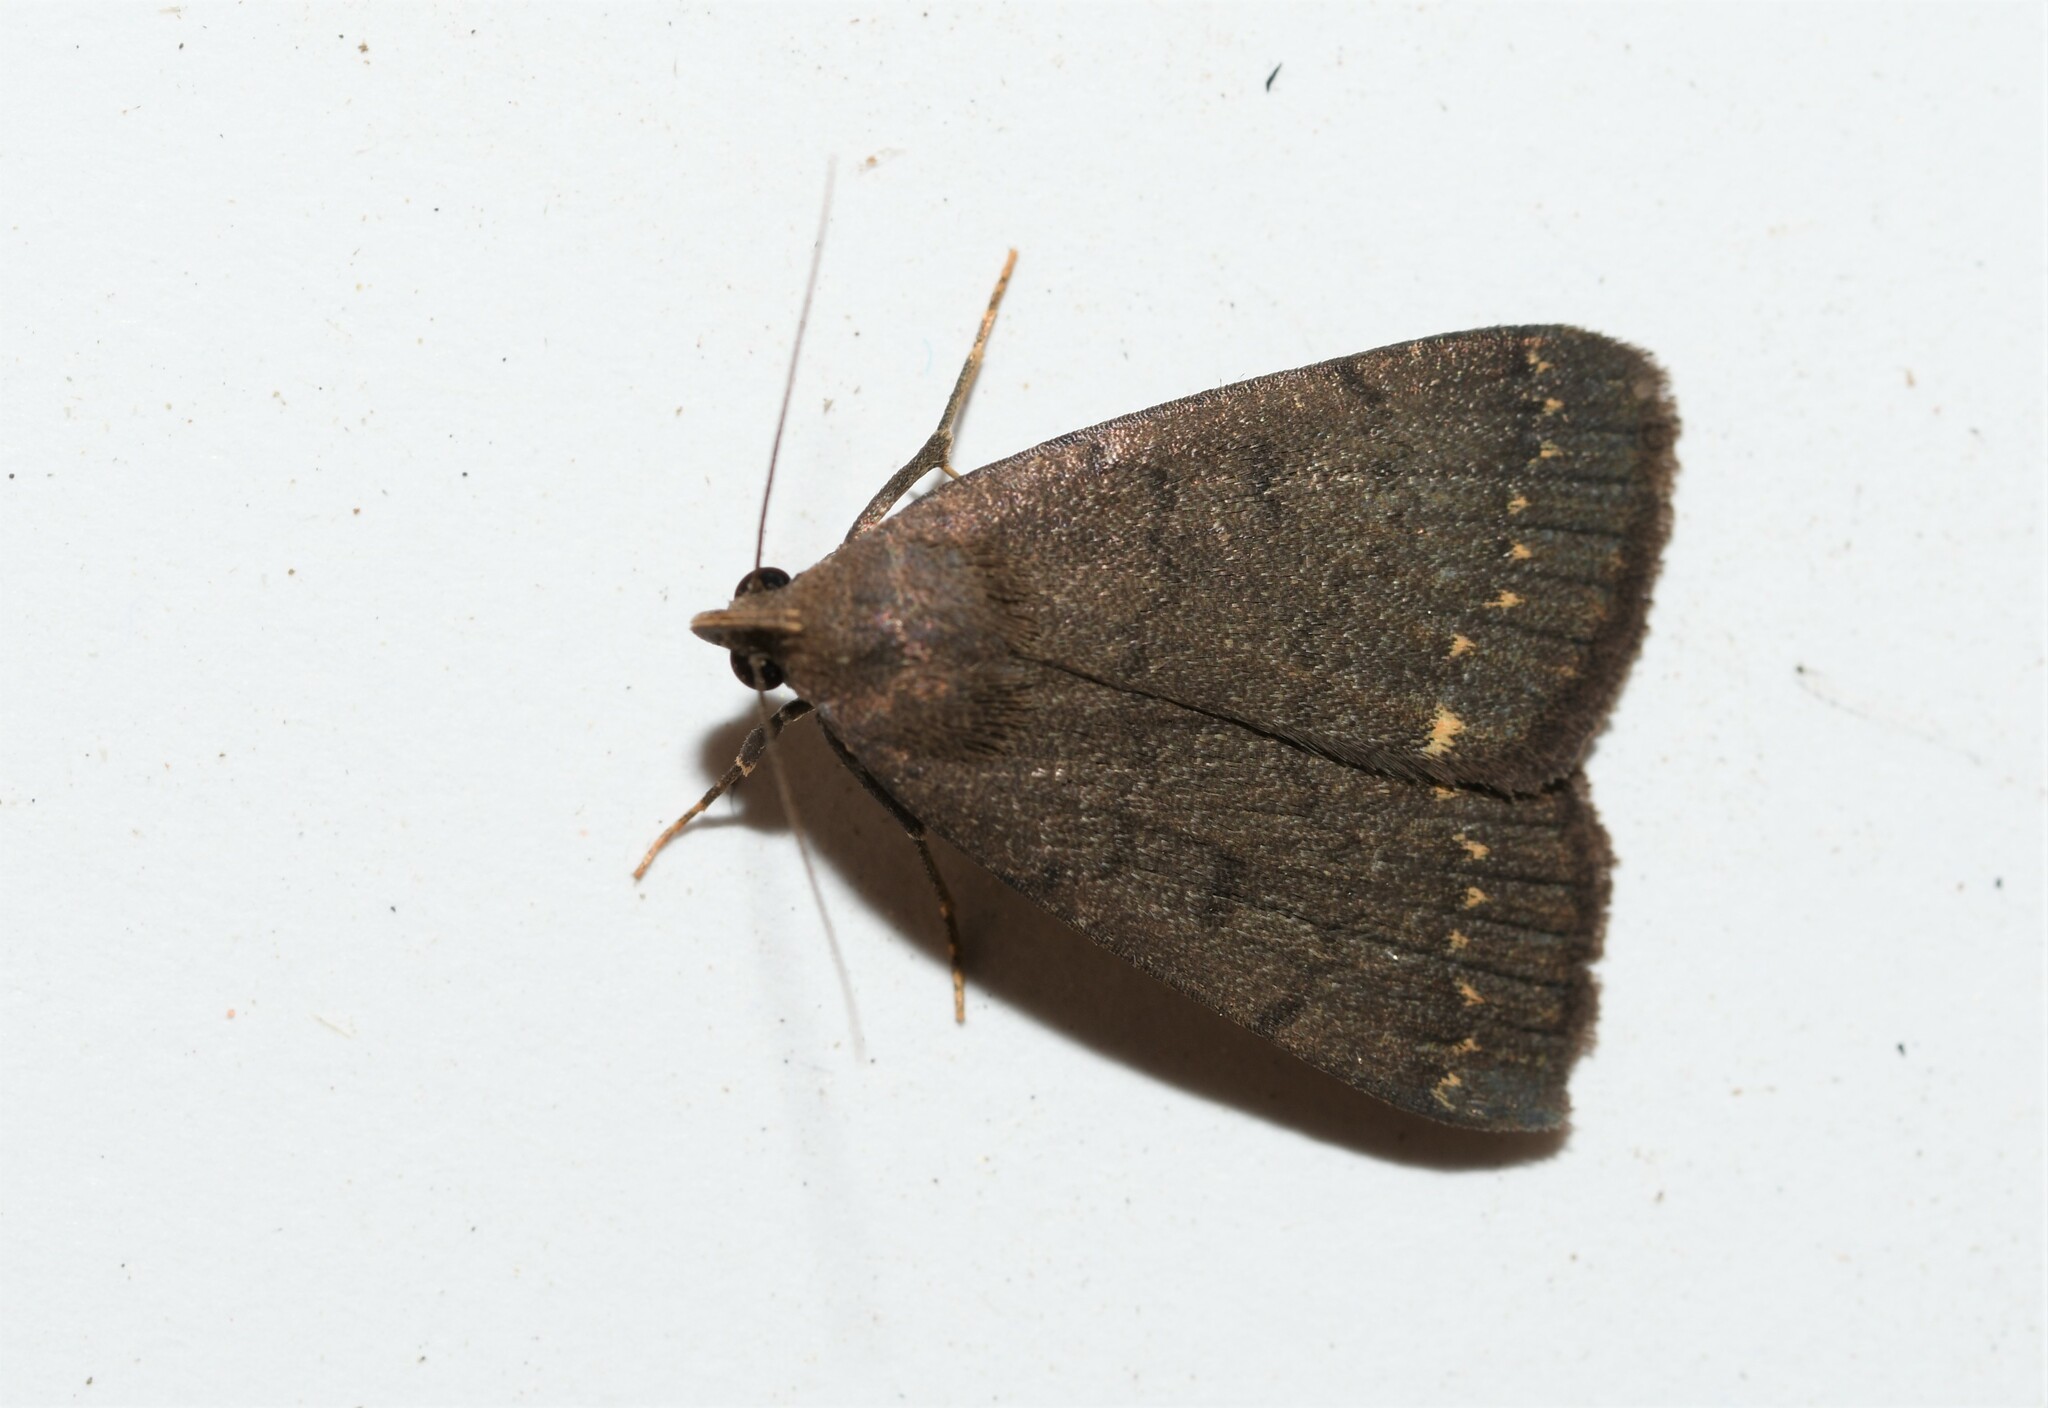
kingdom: Animalia
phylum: Arthropoda
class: Insecta
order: Lepidoptera
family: Erebidae
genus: Nodaria
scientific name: Nodaria nodosalis
